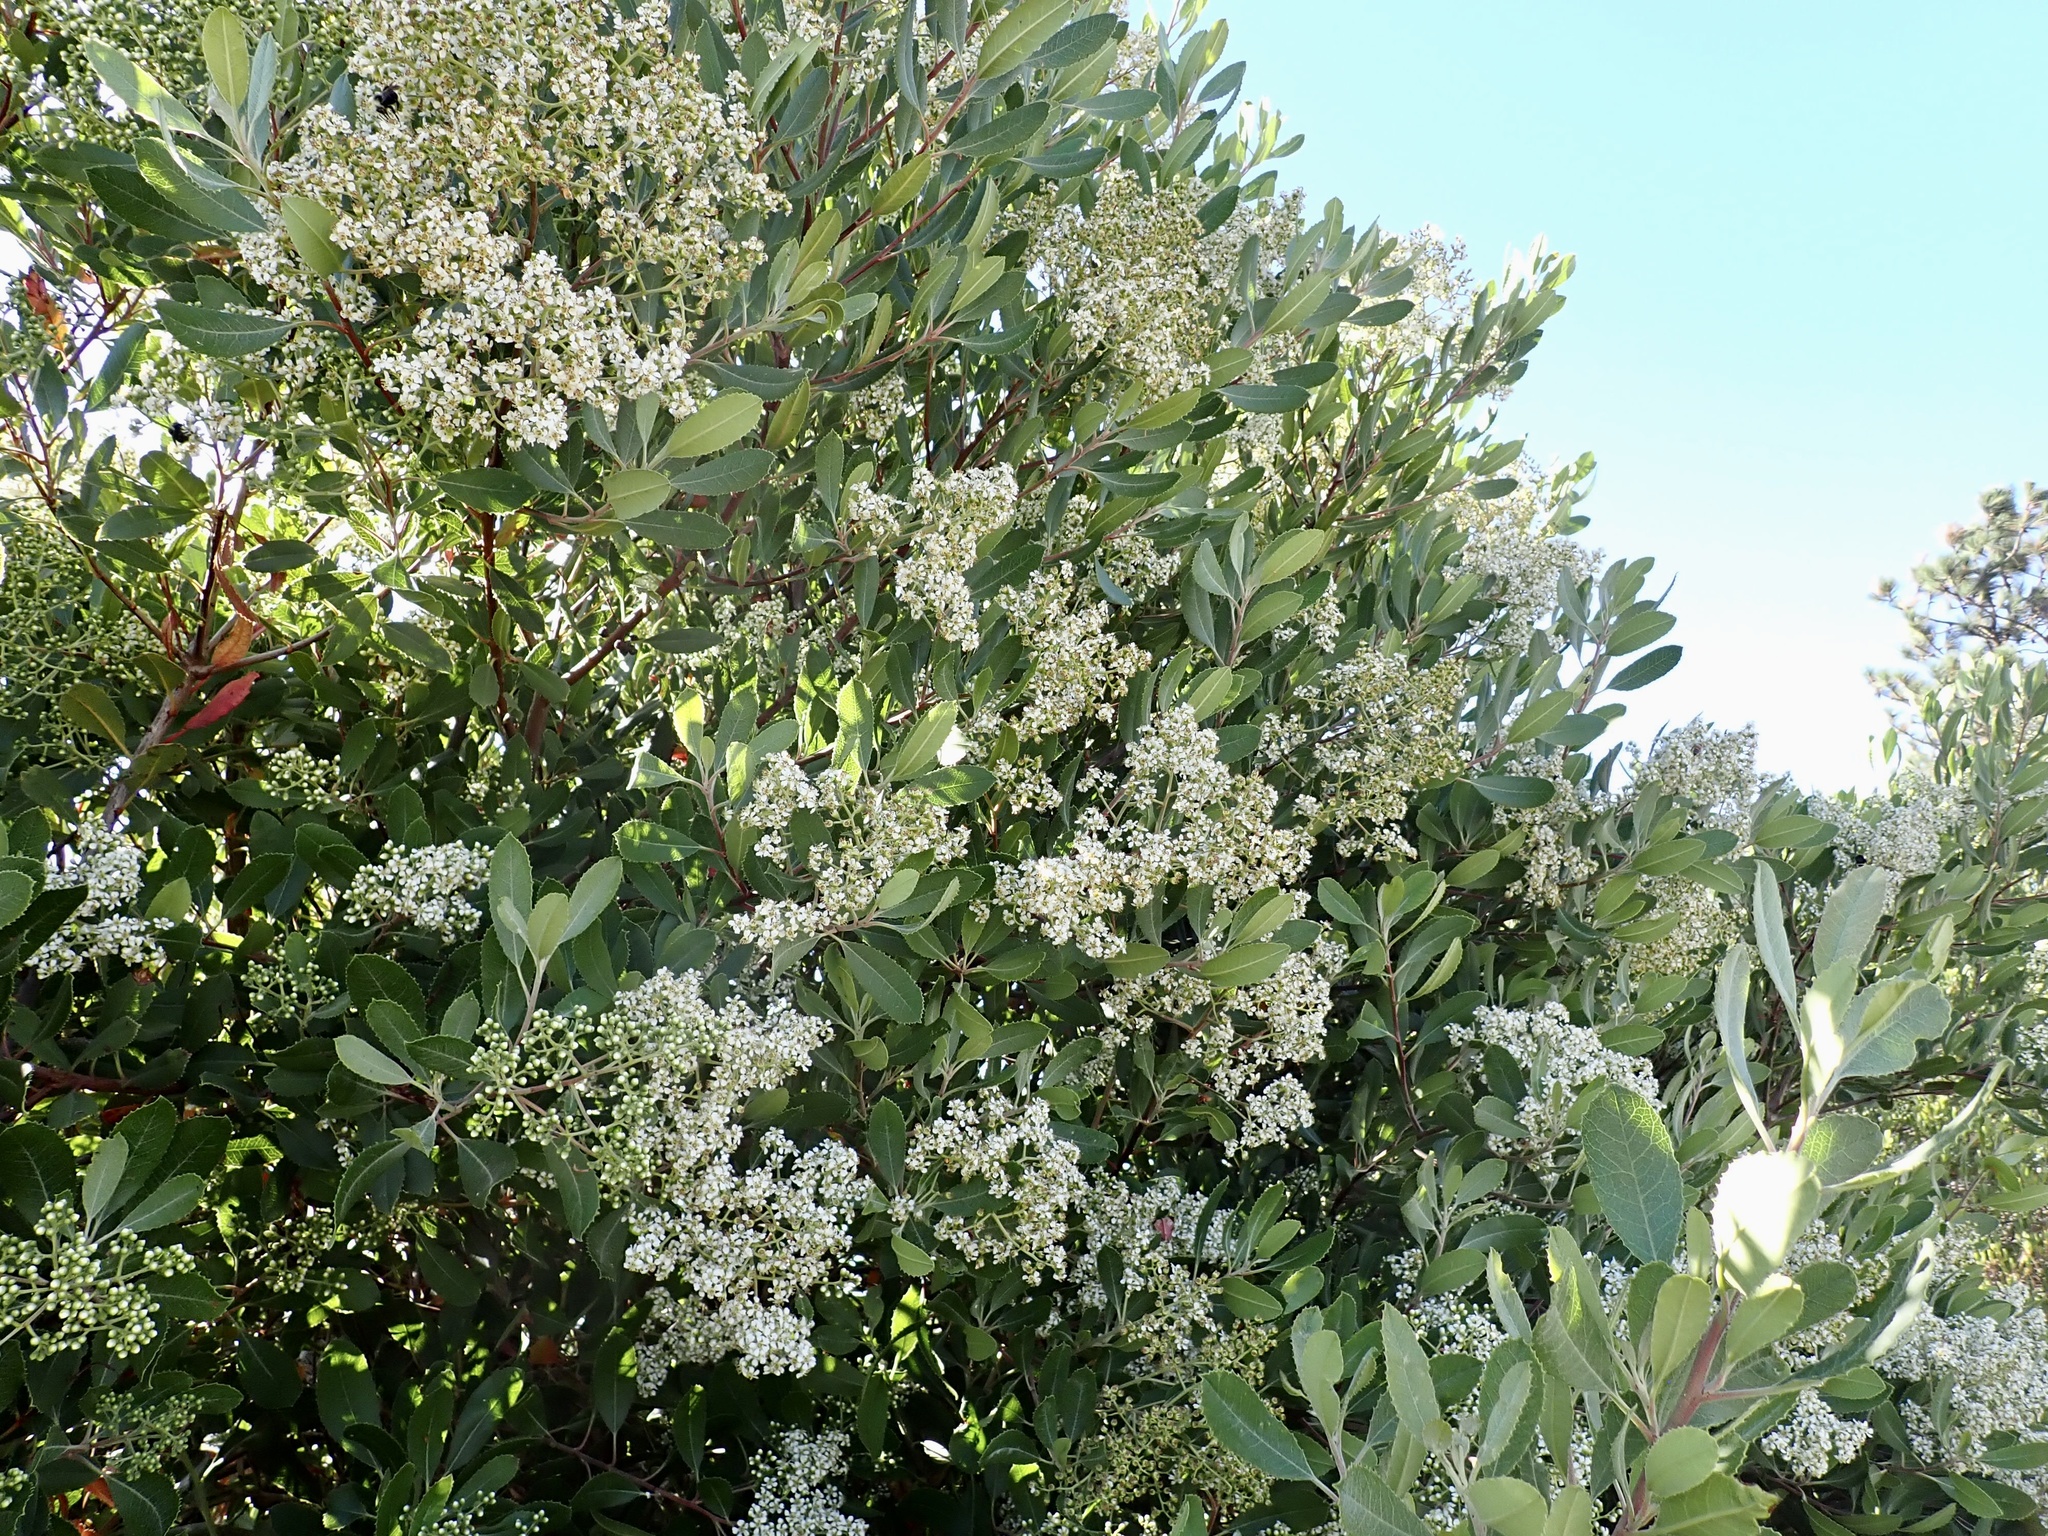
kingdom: Plantae
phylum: Tracheophyta
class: Magnoliopsida
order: Rosales
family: Rosaceae
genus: Heteromeles
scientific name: Heteromeles arbutifolia
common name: California-holly
